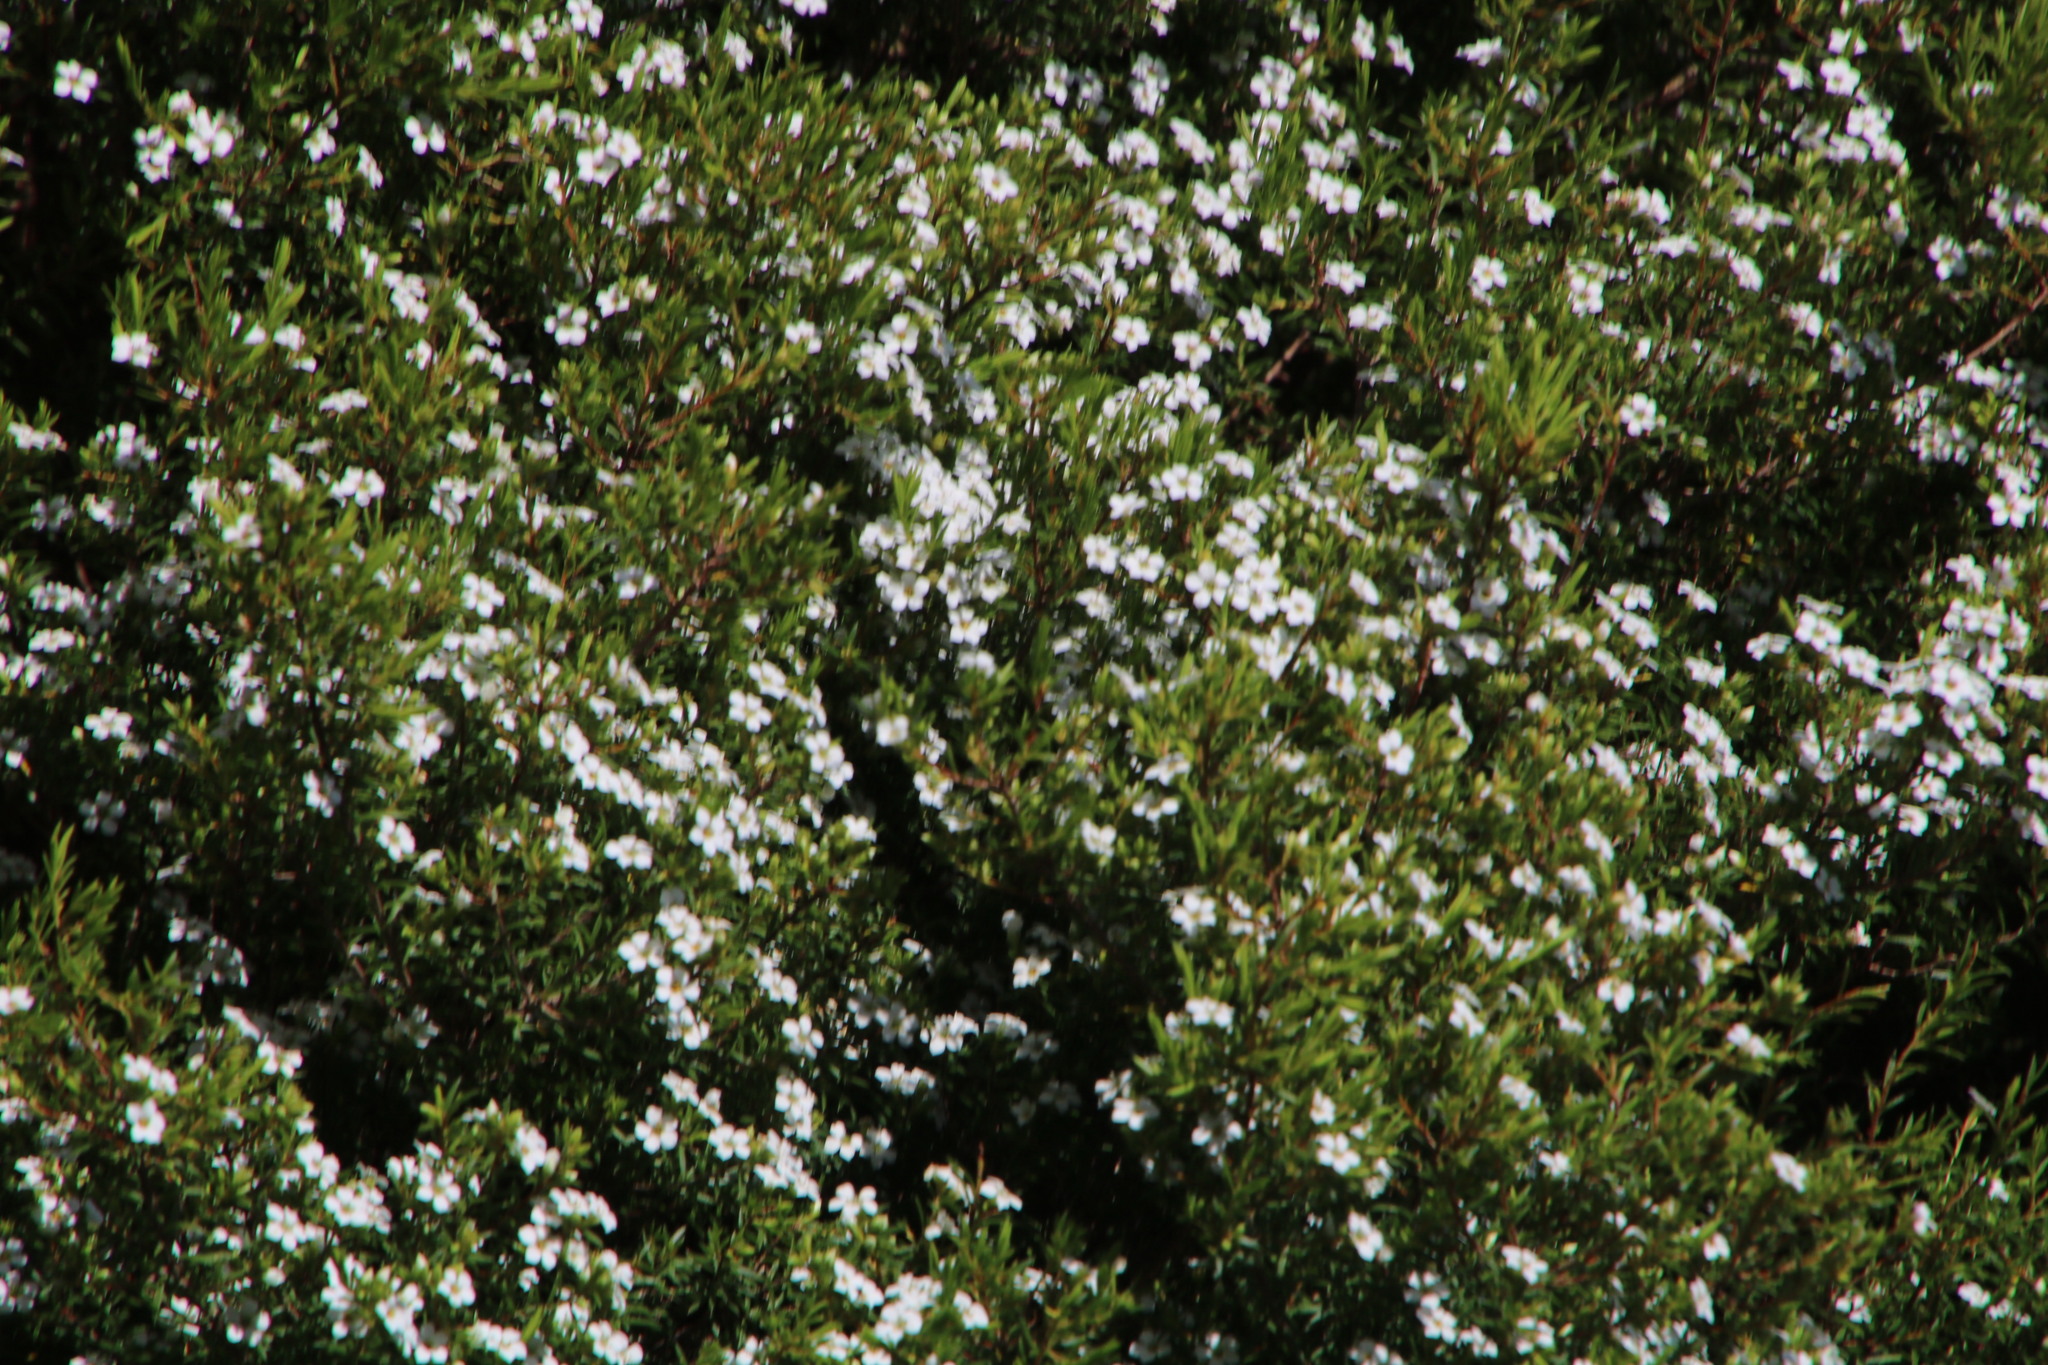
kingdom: Plantae
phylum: Tracheophyta
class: Magnoliopsida
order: Sapindales
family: Rutaceae
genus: Coleonema
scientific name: Coleonema album
